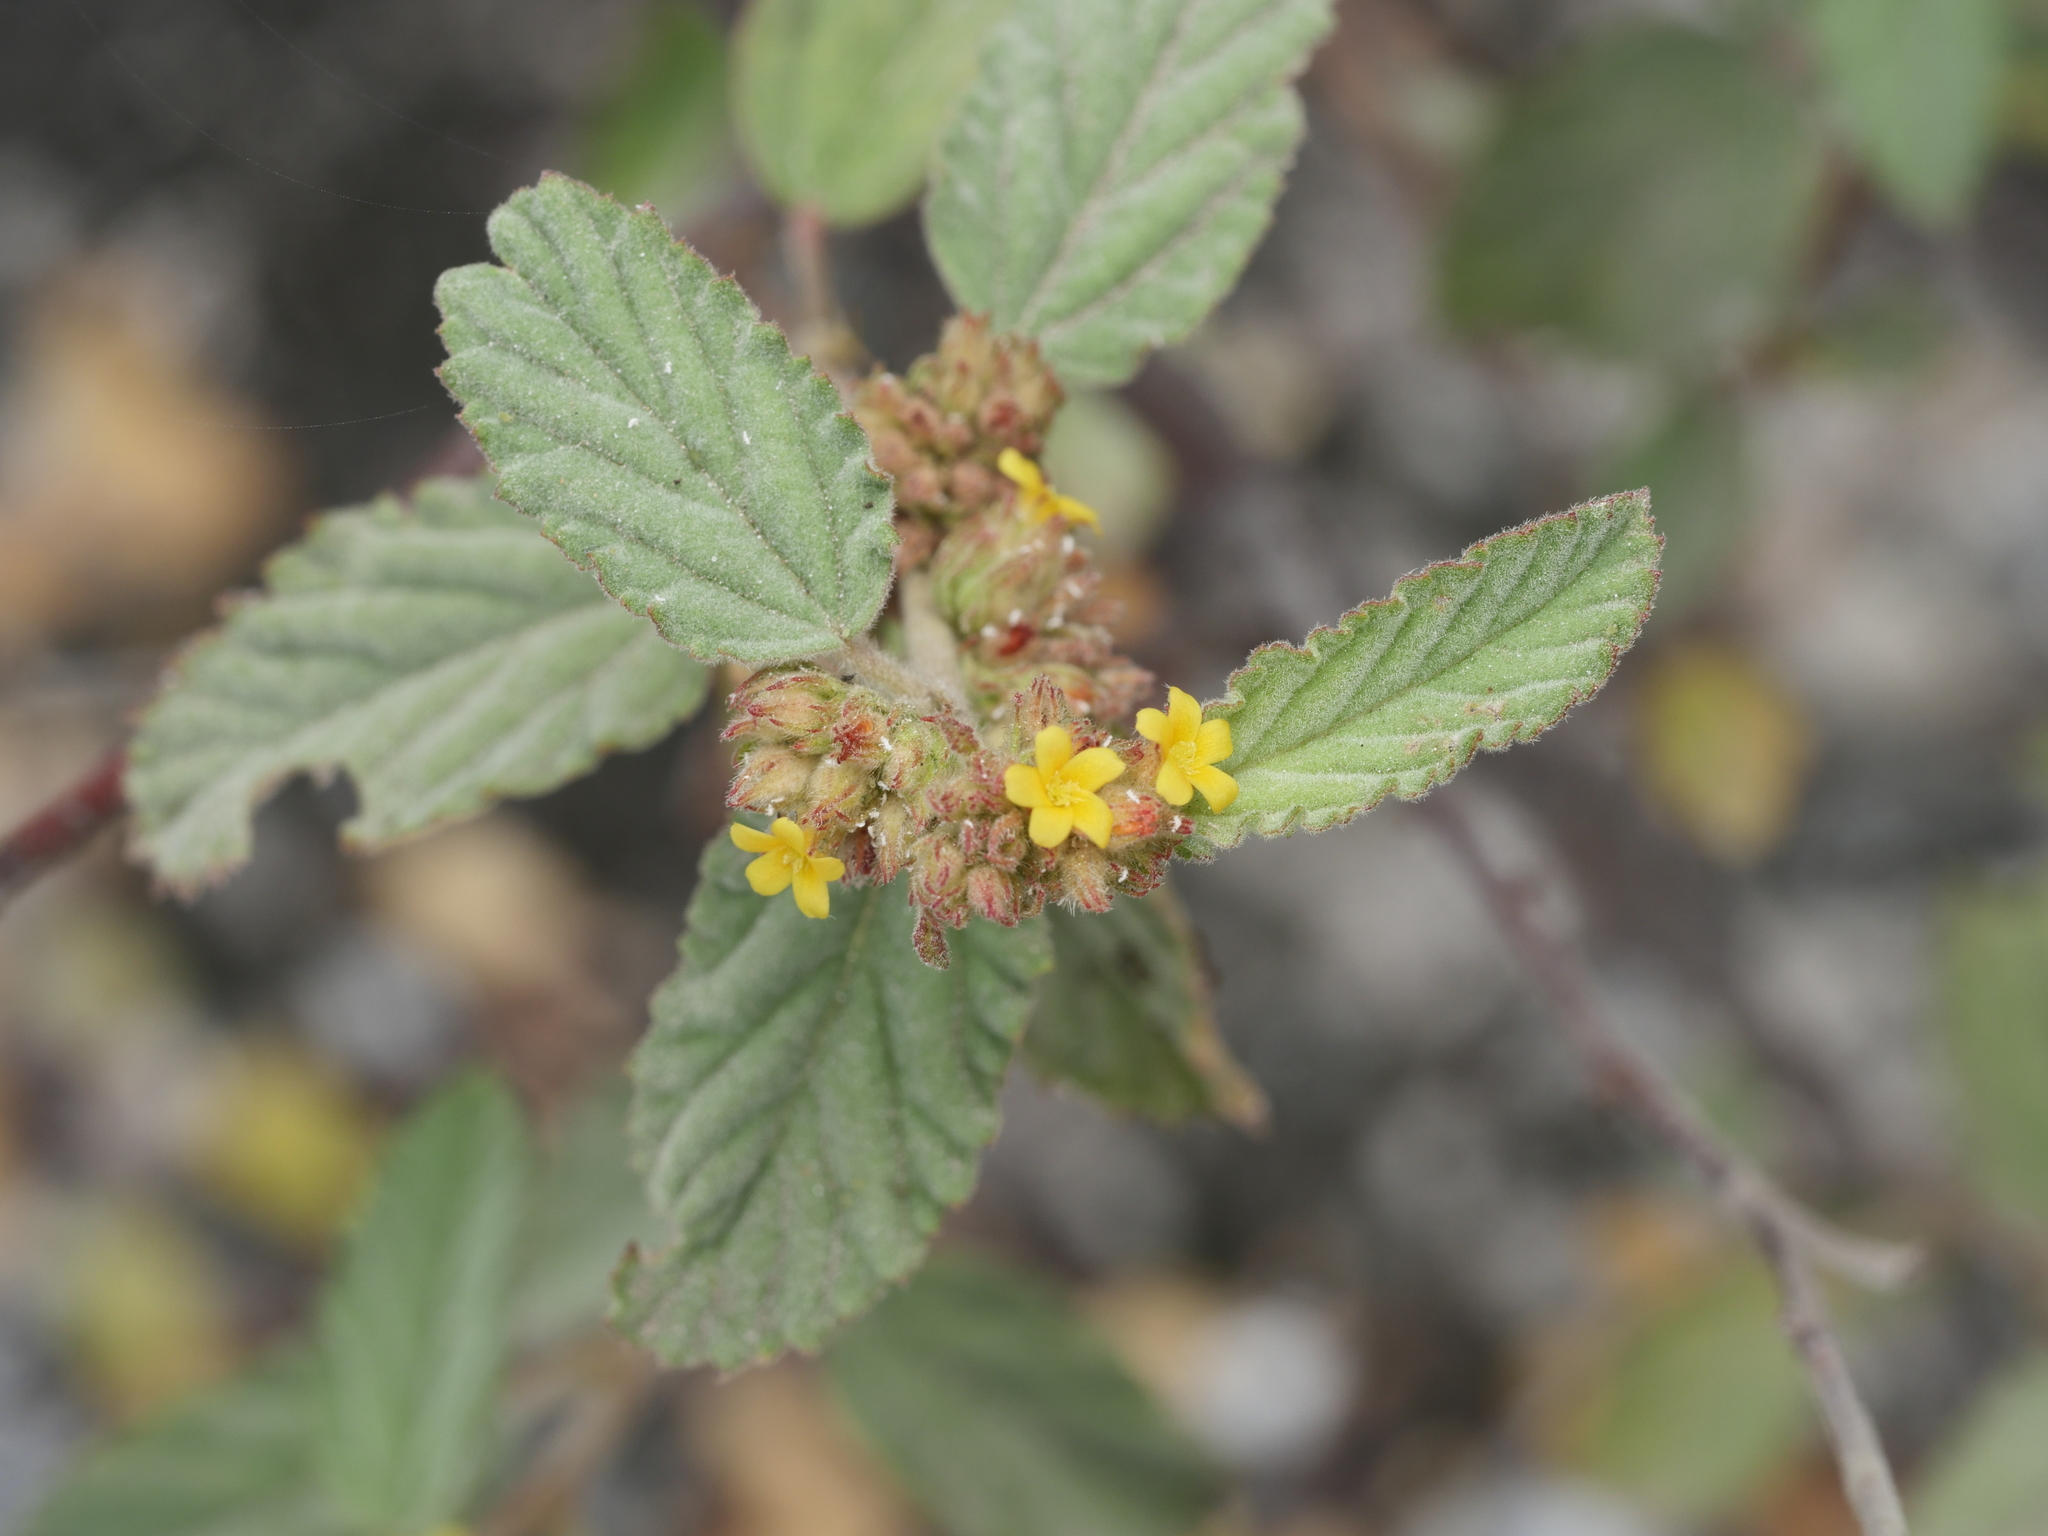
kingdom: Plantae
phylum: Tracheophyta
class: Magnoliopsida
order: Malvales
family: Malvaceae
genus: Waltheria
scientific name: Waltheria indica
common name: Leather-coat
